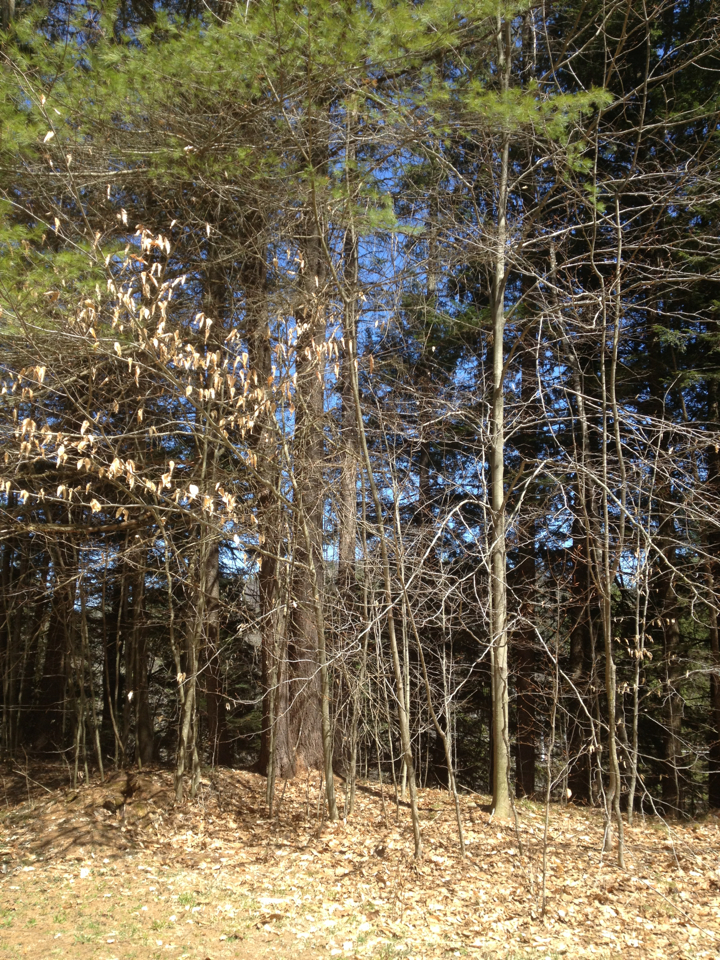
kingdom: Plantae
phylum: Tracheophyta
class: Magnoliopsida
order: Fagales
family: Fagaceae
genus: Fagus
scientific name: Fagus grandifolia
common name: American beech
